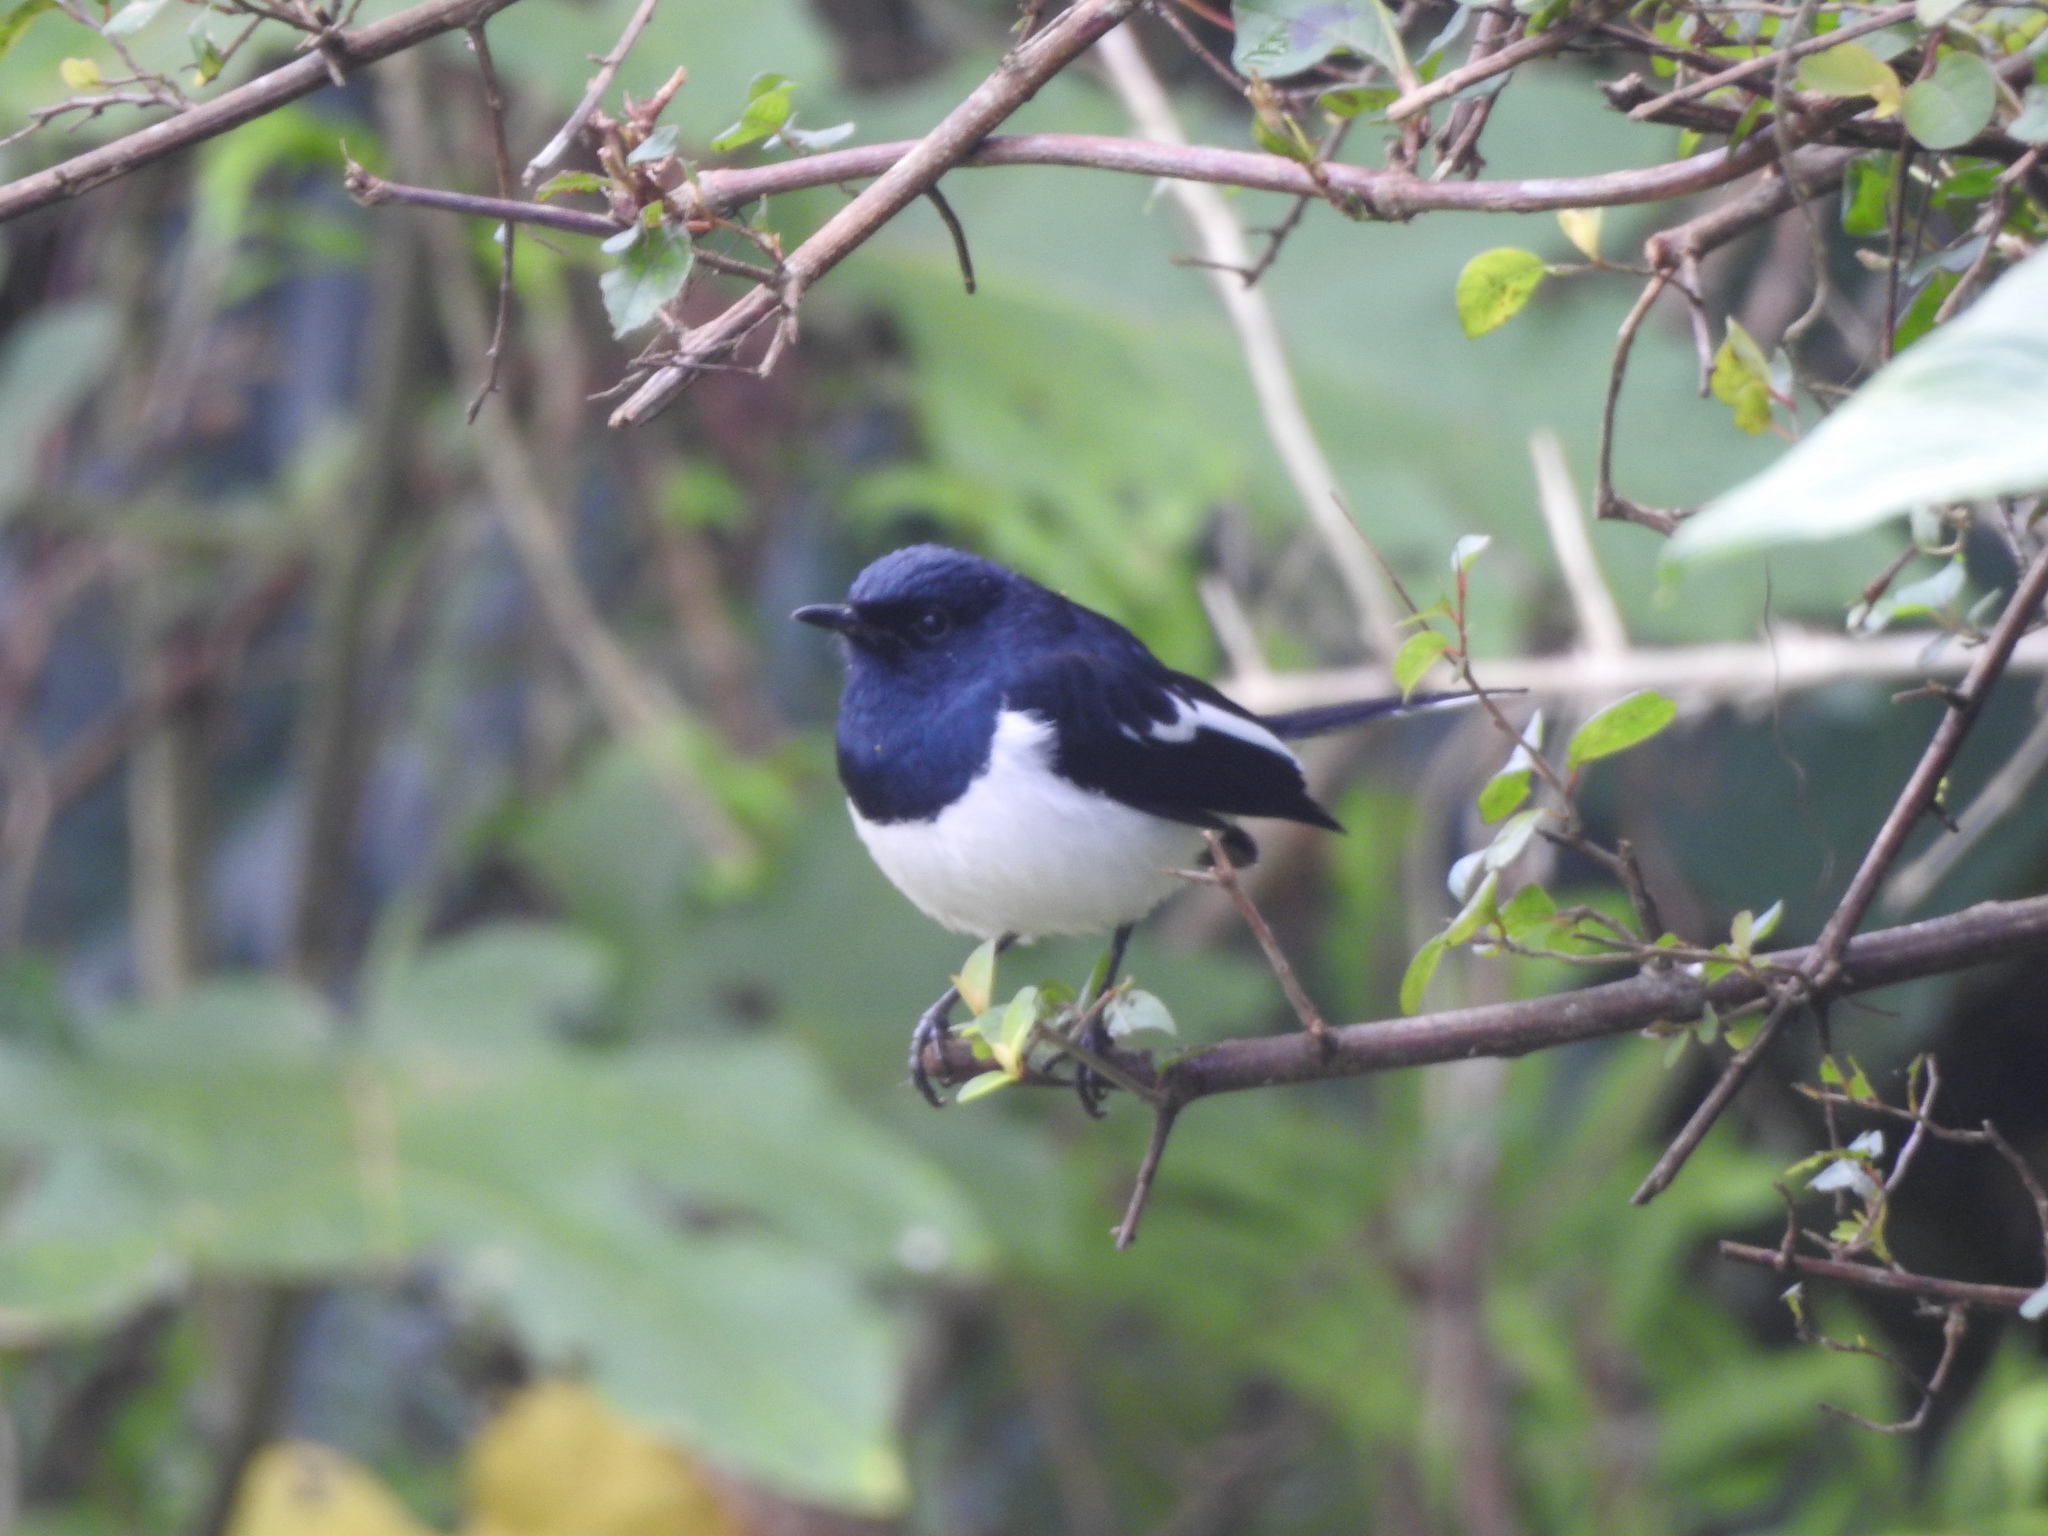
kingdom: Animalia
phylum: Chordata
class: Aves
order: Passeriformes
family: Muscicapidae
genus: Copsychus
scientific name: Copsychus saularis
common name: Oriental magpie-robin
